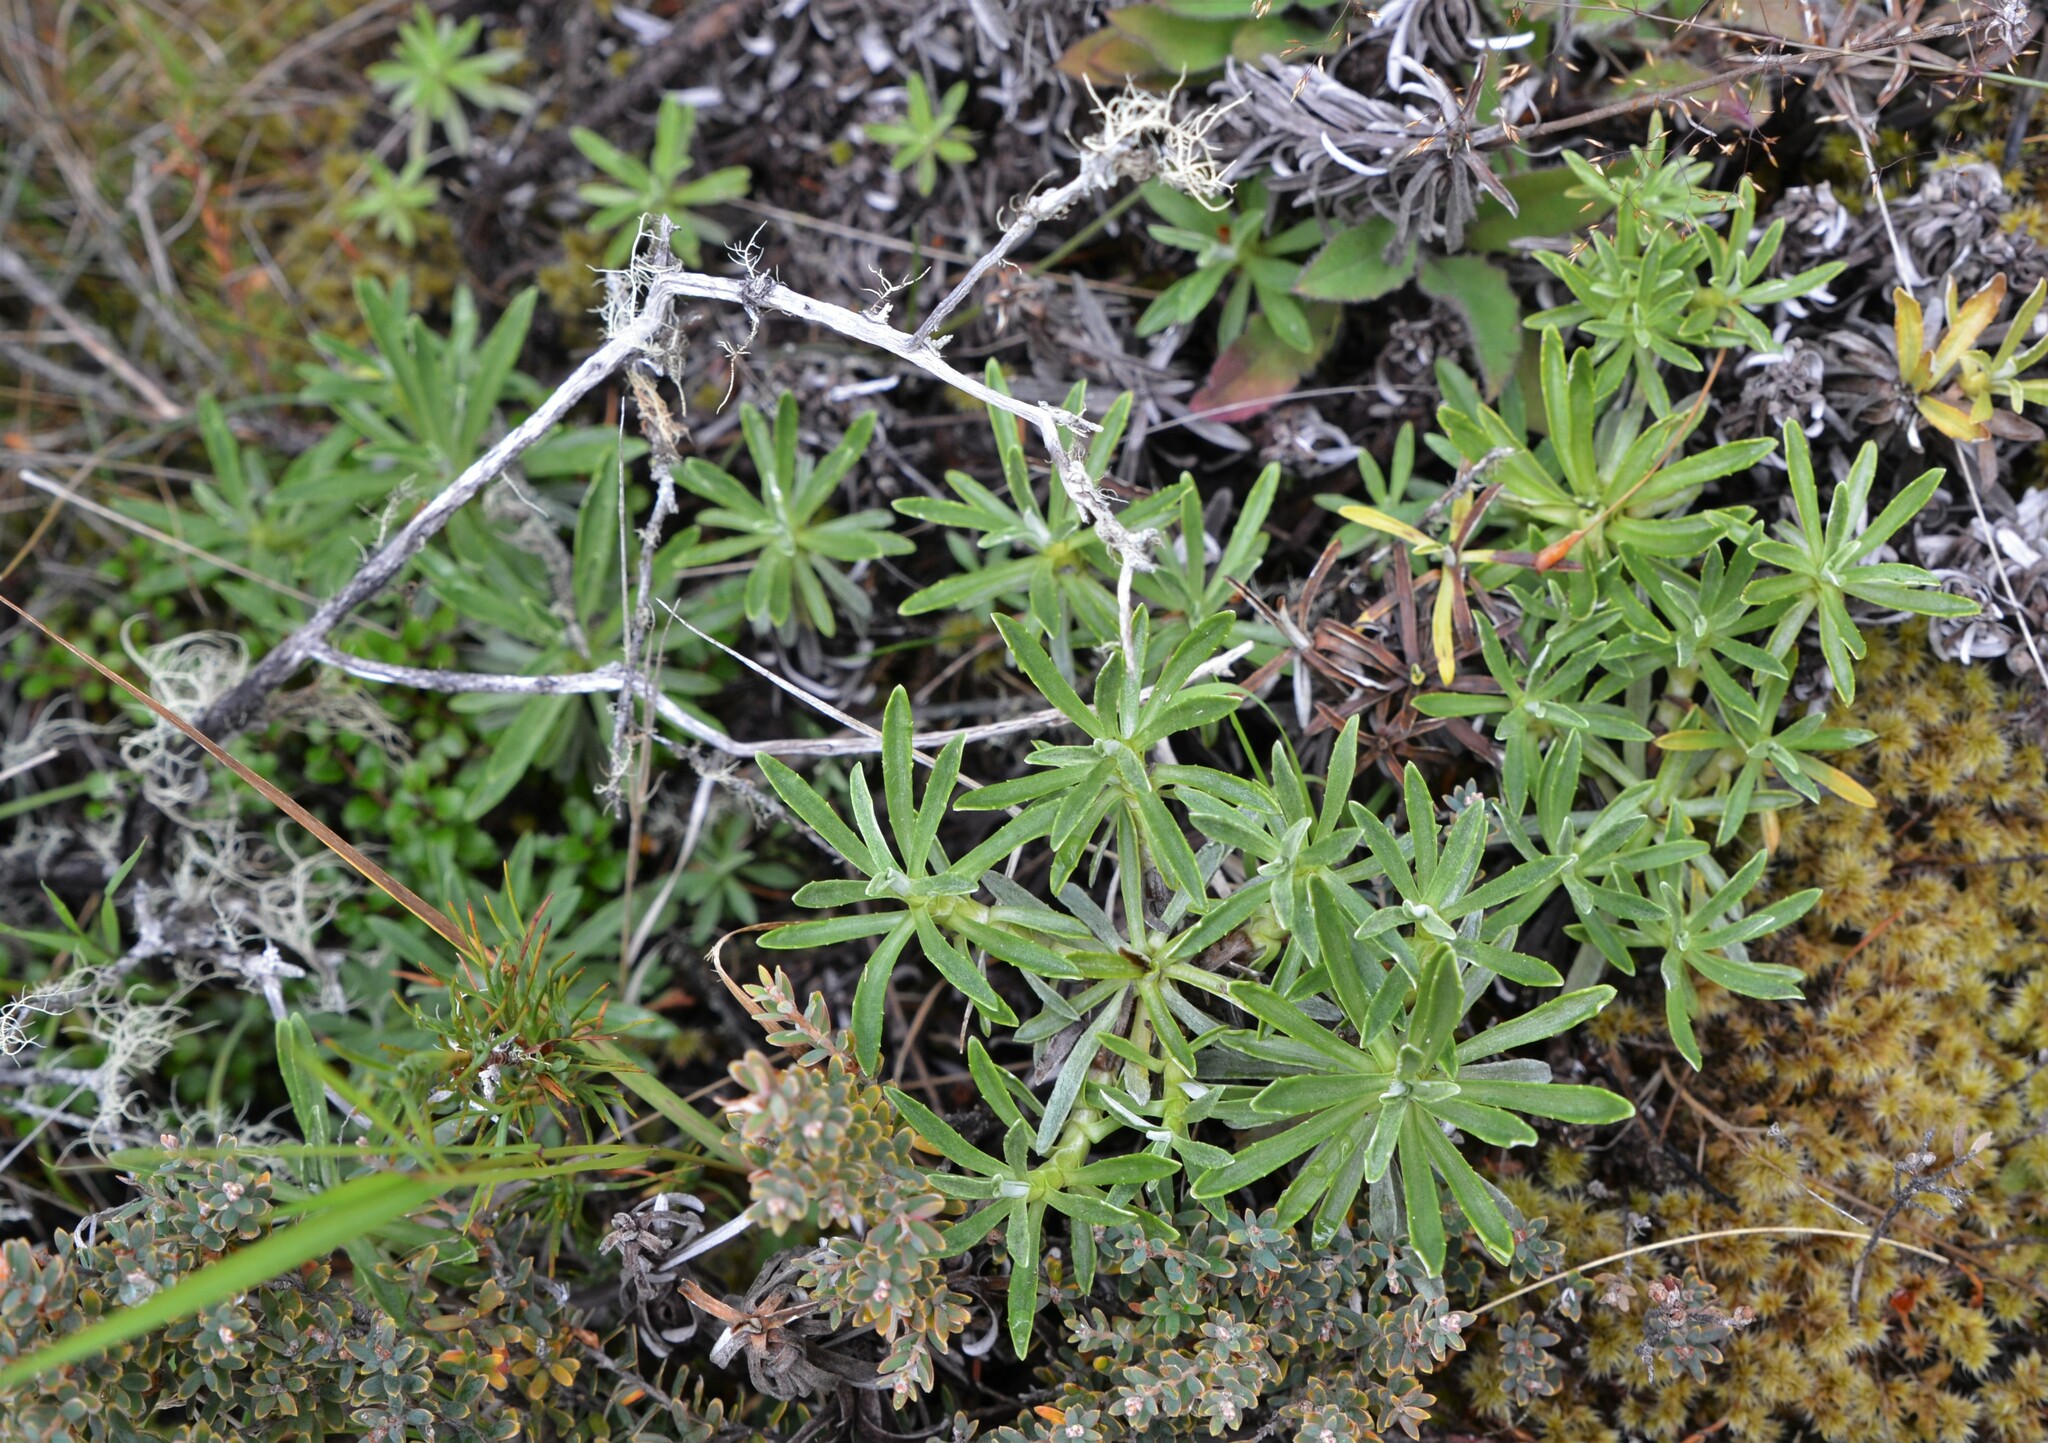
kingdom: Plantae
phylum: Tracheophyta
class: Magnoliopsida
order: Asterales
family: Asteraceae
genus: Celmisia
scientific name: Celmisia angustifolia
